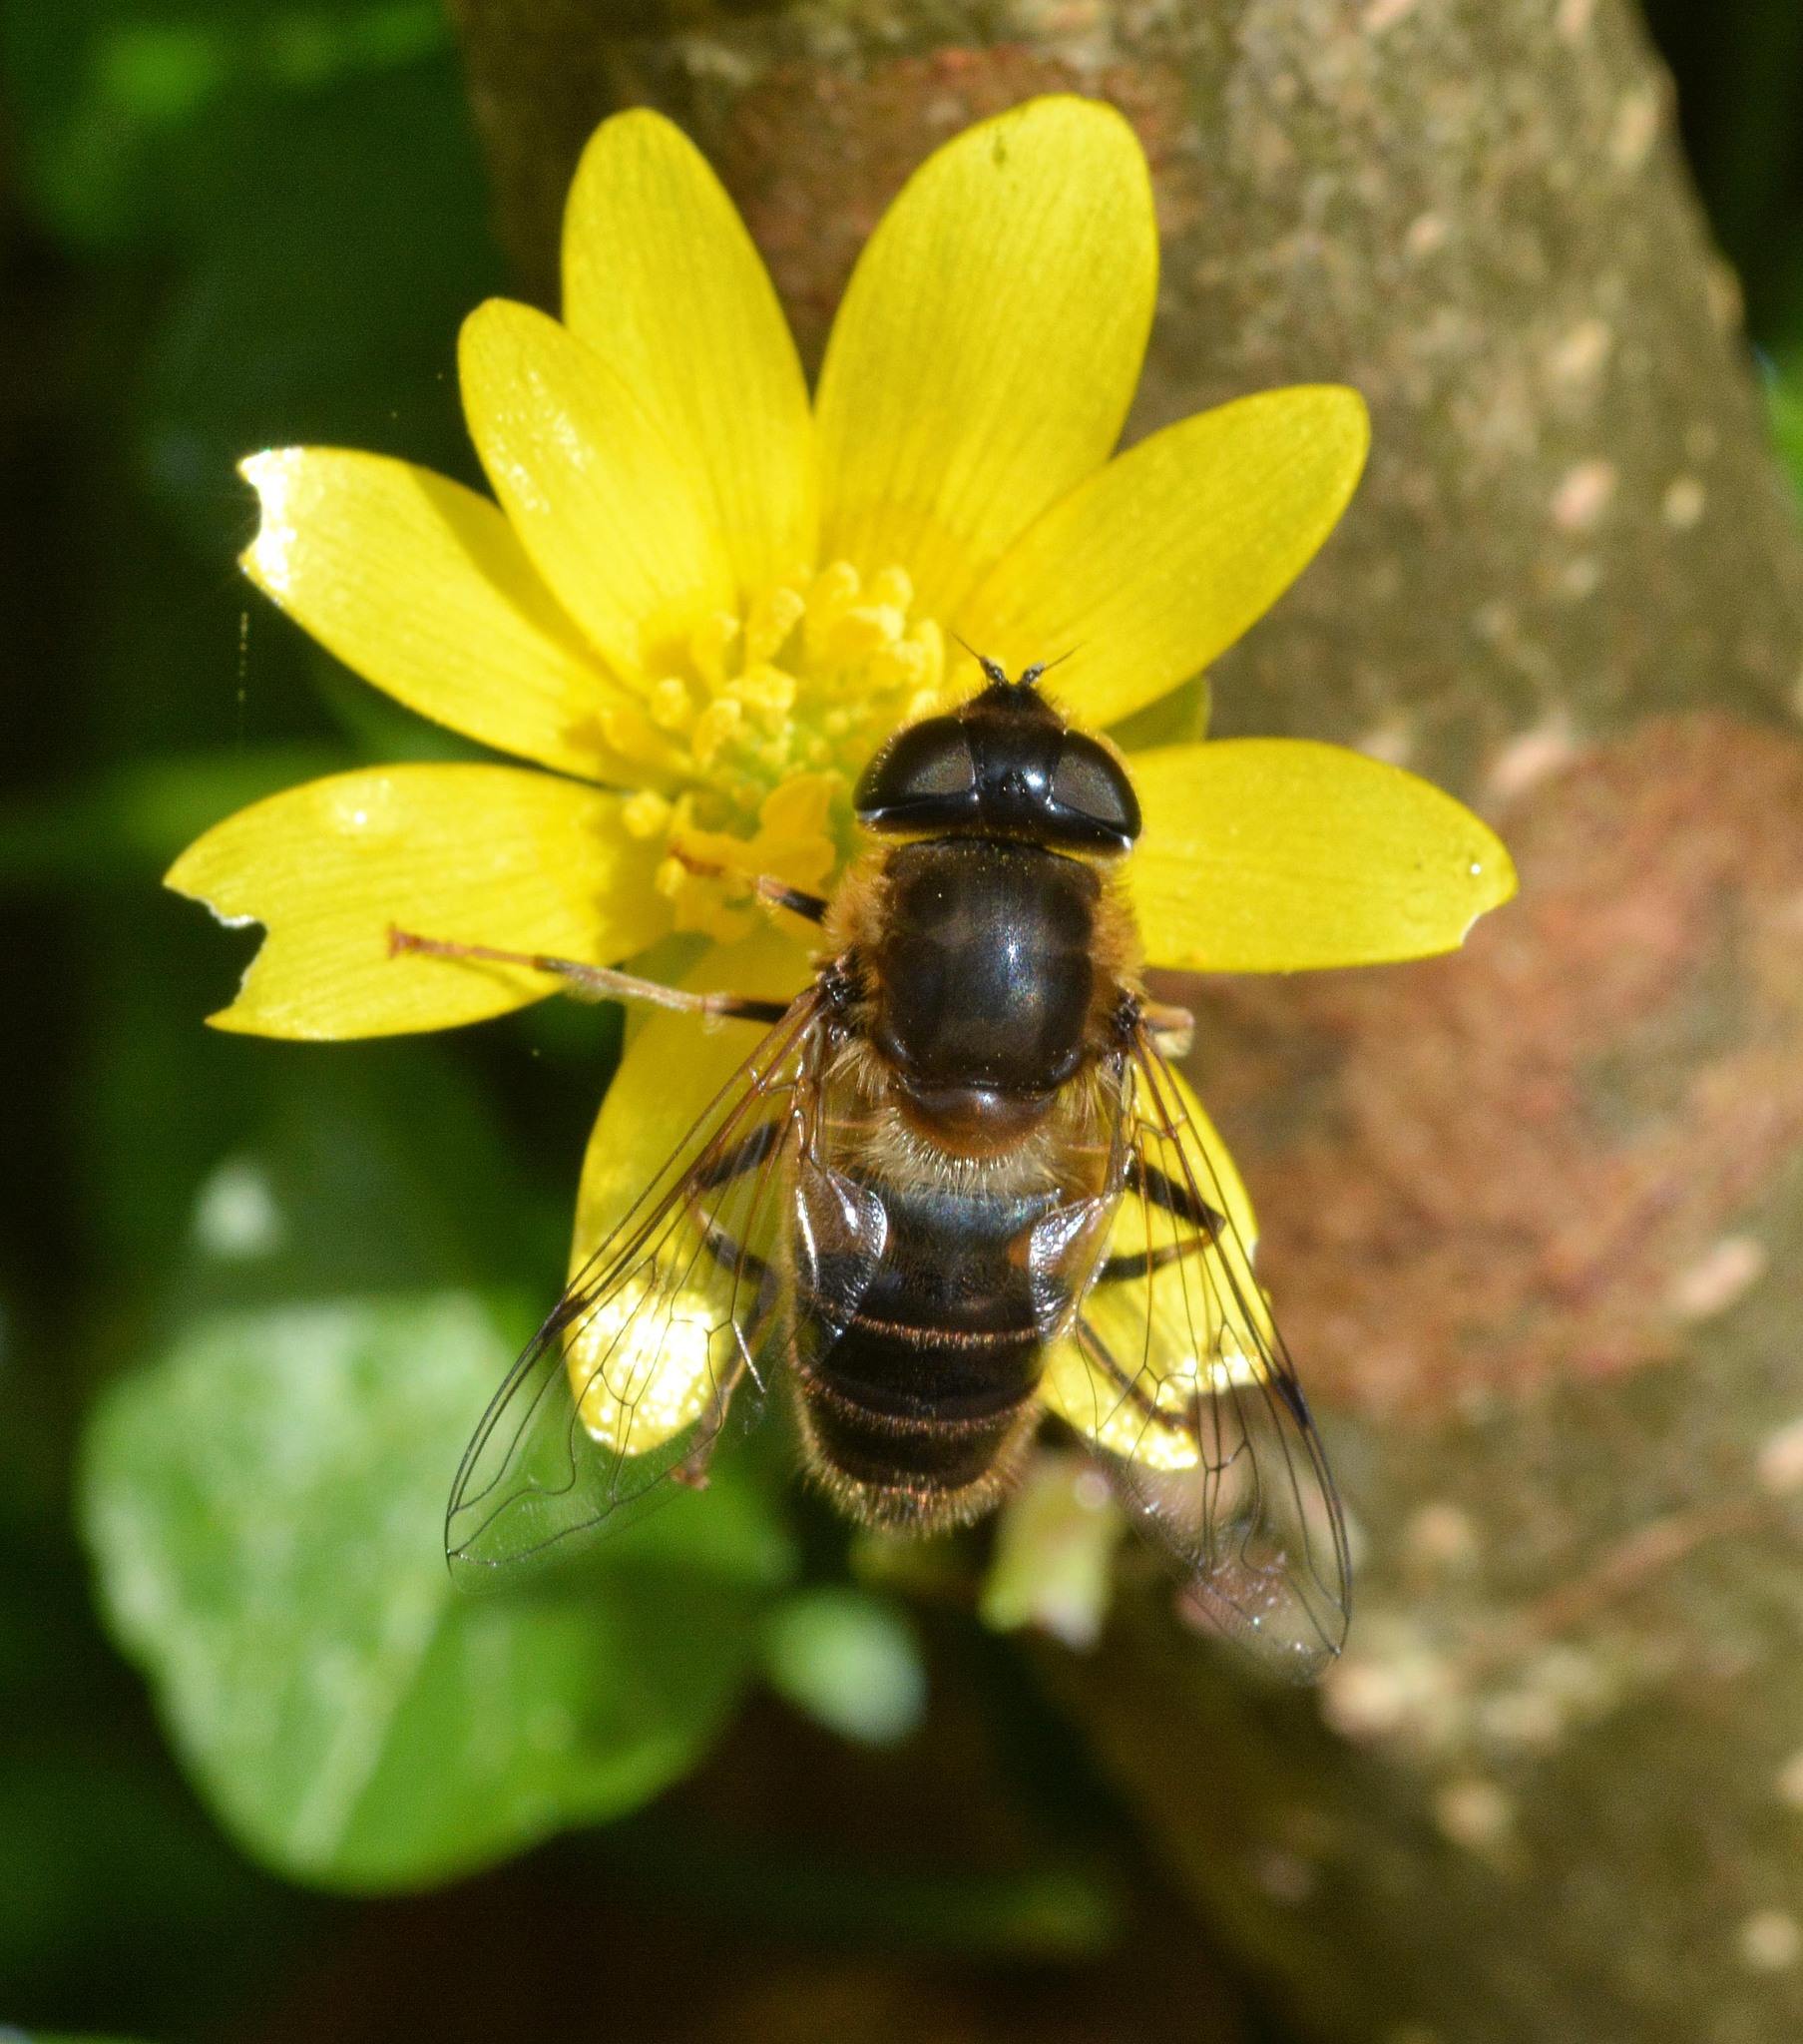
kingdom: Animalia
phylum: Arthropoda
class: Insecta
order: Diptera
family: Syrphidae
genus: Eristalis
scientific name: Eristalis pertinax
